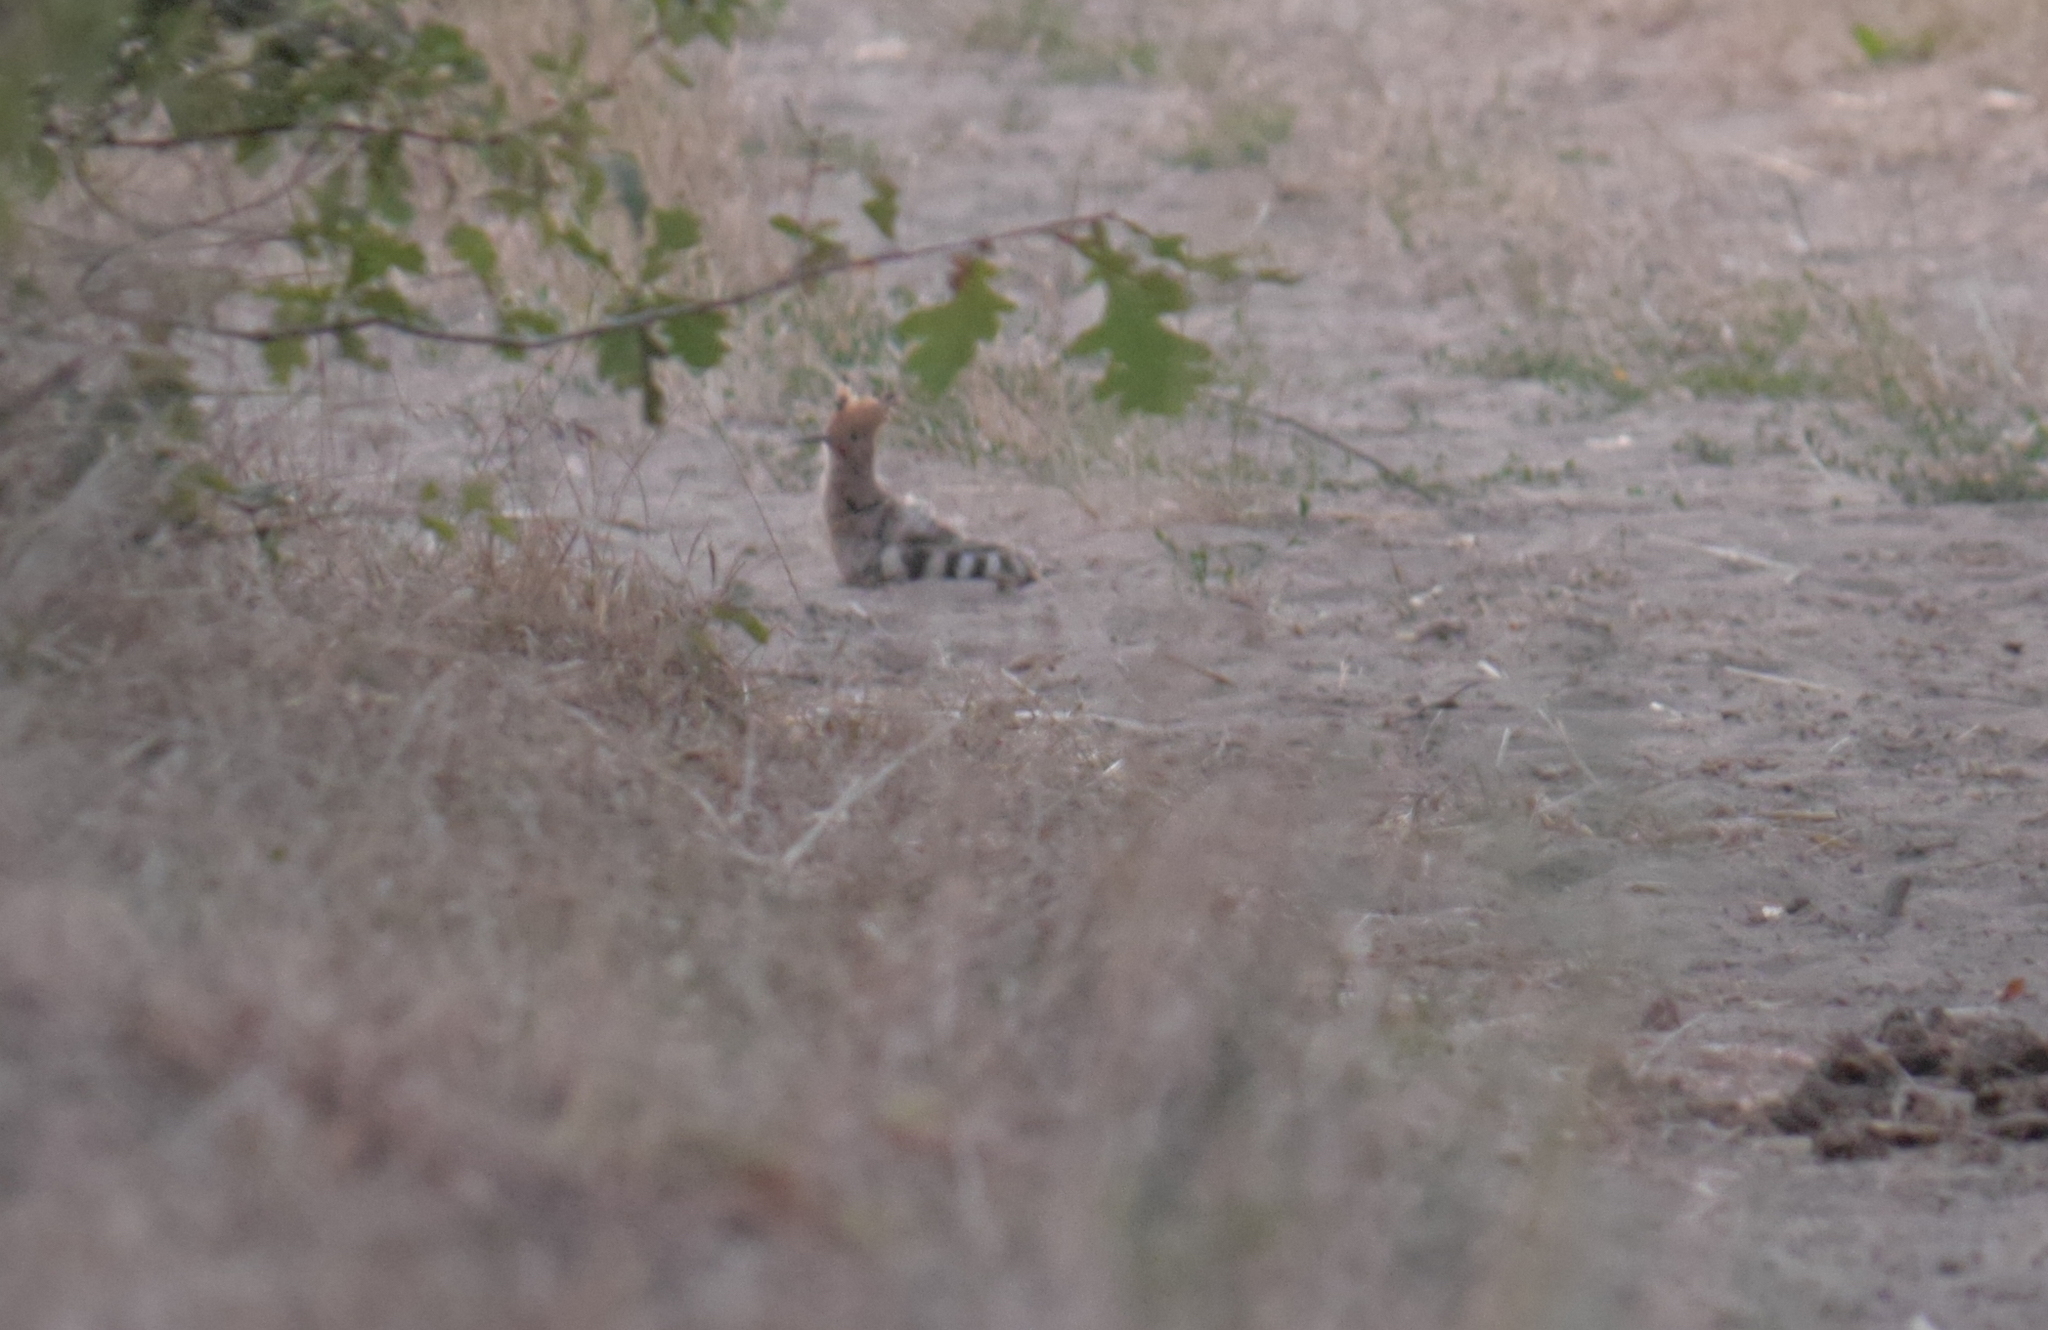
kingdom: Animalia
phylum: Chordata
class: Aves
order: Bucerotiformes
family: Upupidae
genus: Upupa
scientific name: Upupa epops
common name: Eurasian hoopoe
